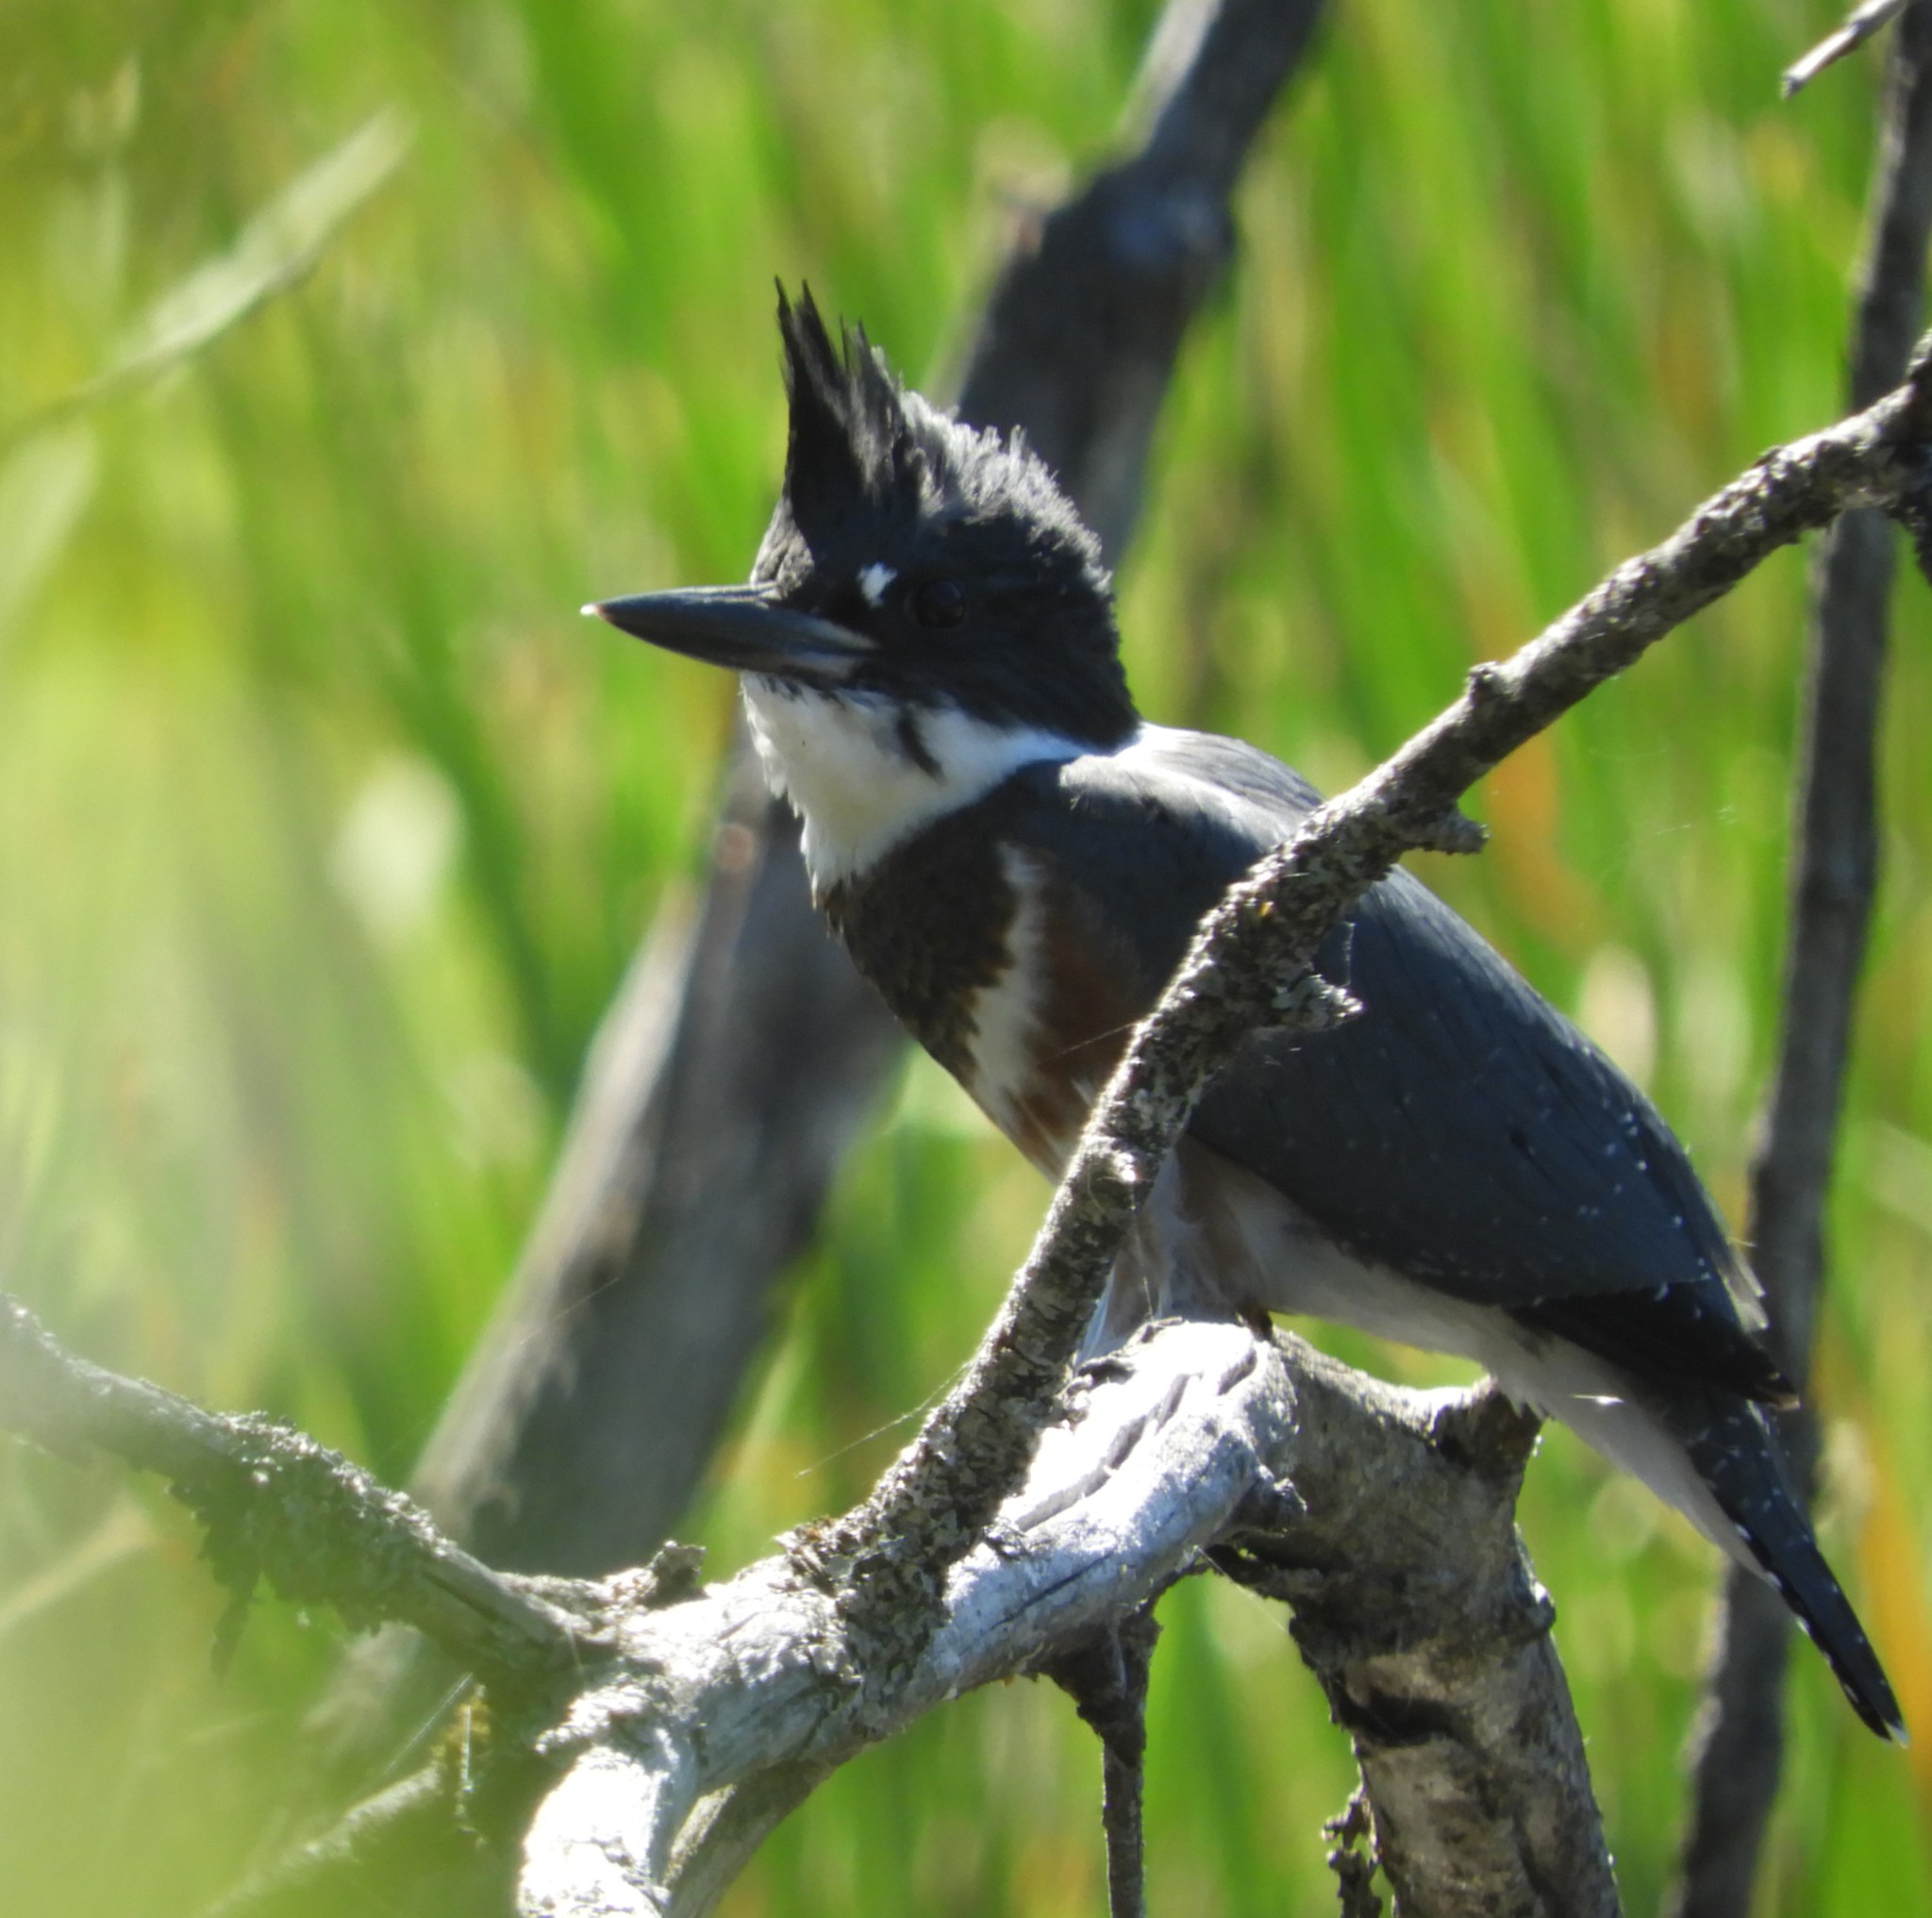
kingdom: Animalia
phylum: Chordata
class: Aves
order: Coraciiformes
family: Alcedinidae
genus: Megaceryle
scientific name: Megaceryle alcyon
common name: Belted kingfisher
